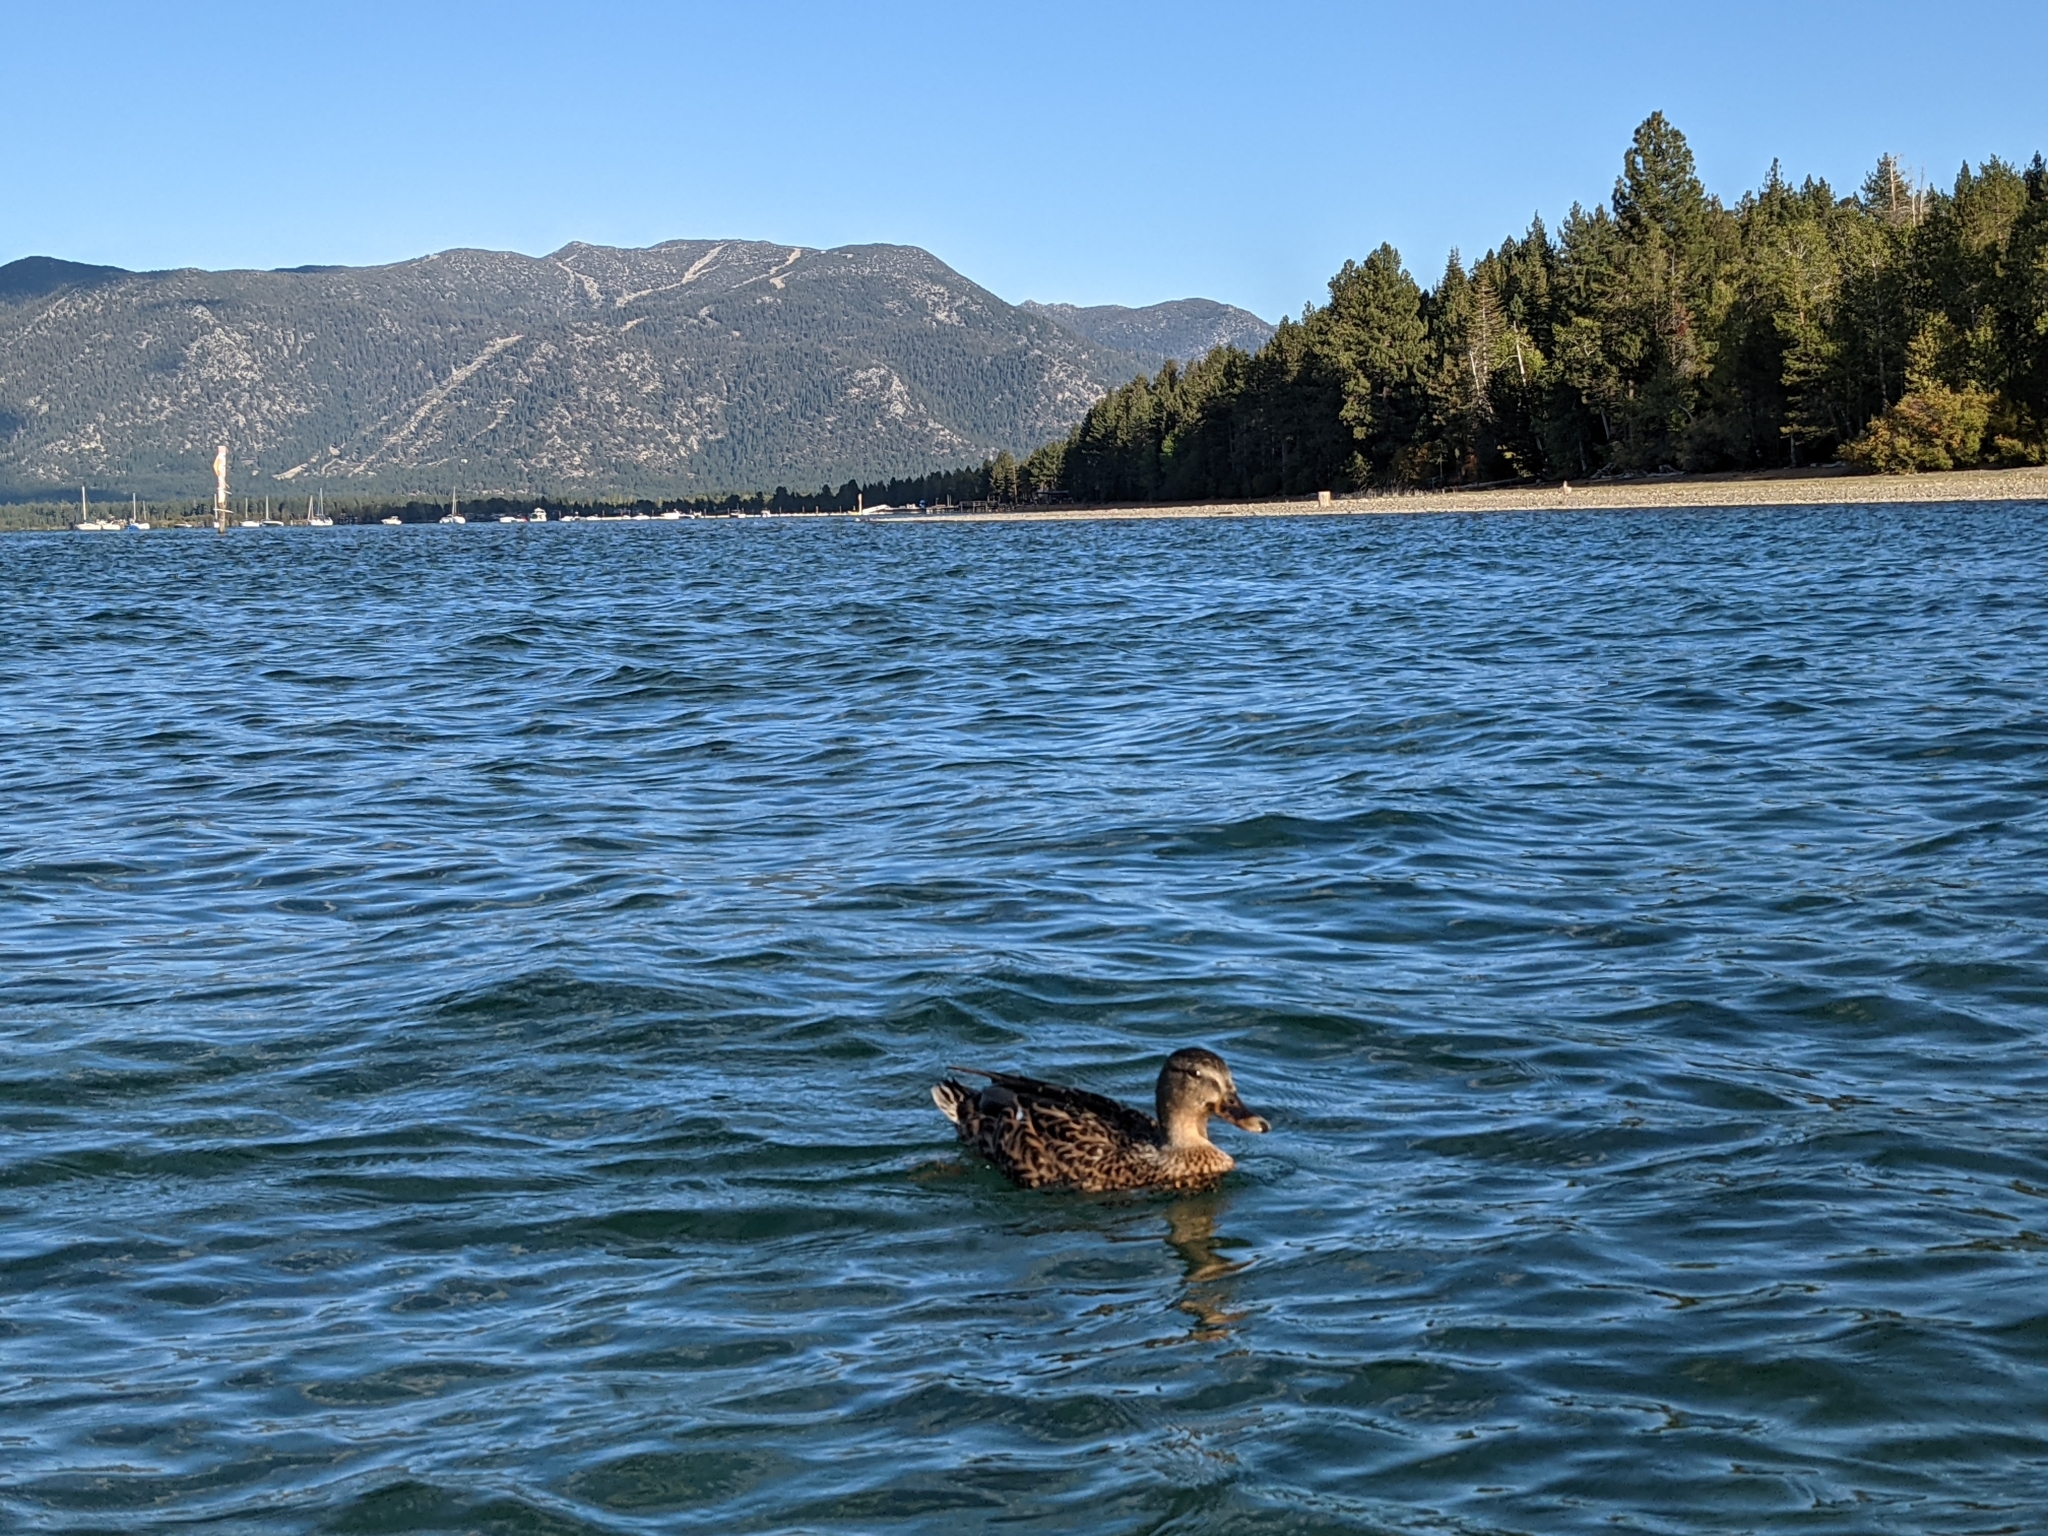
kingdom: Animalia
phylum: Chordata
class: Aves
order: Anseriformes
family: Anatidae
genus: Anas
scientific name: Anas platyrhynchos
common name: Mallard
